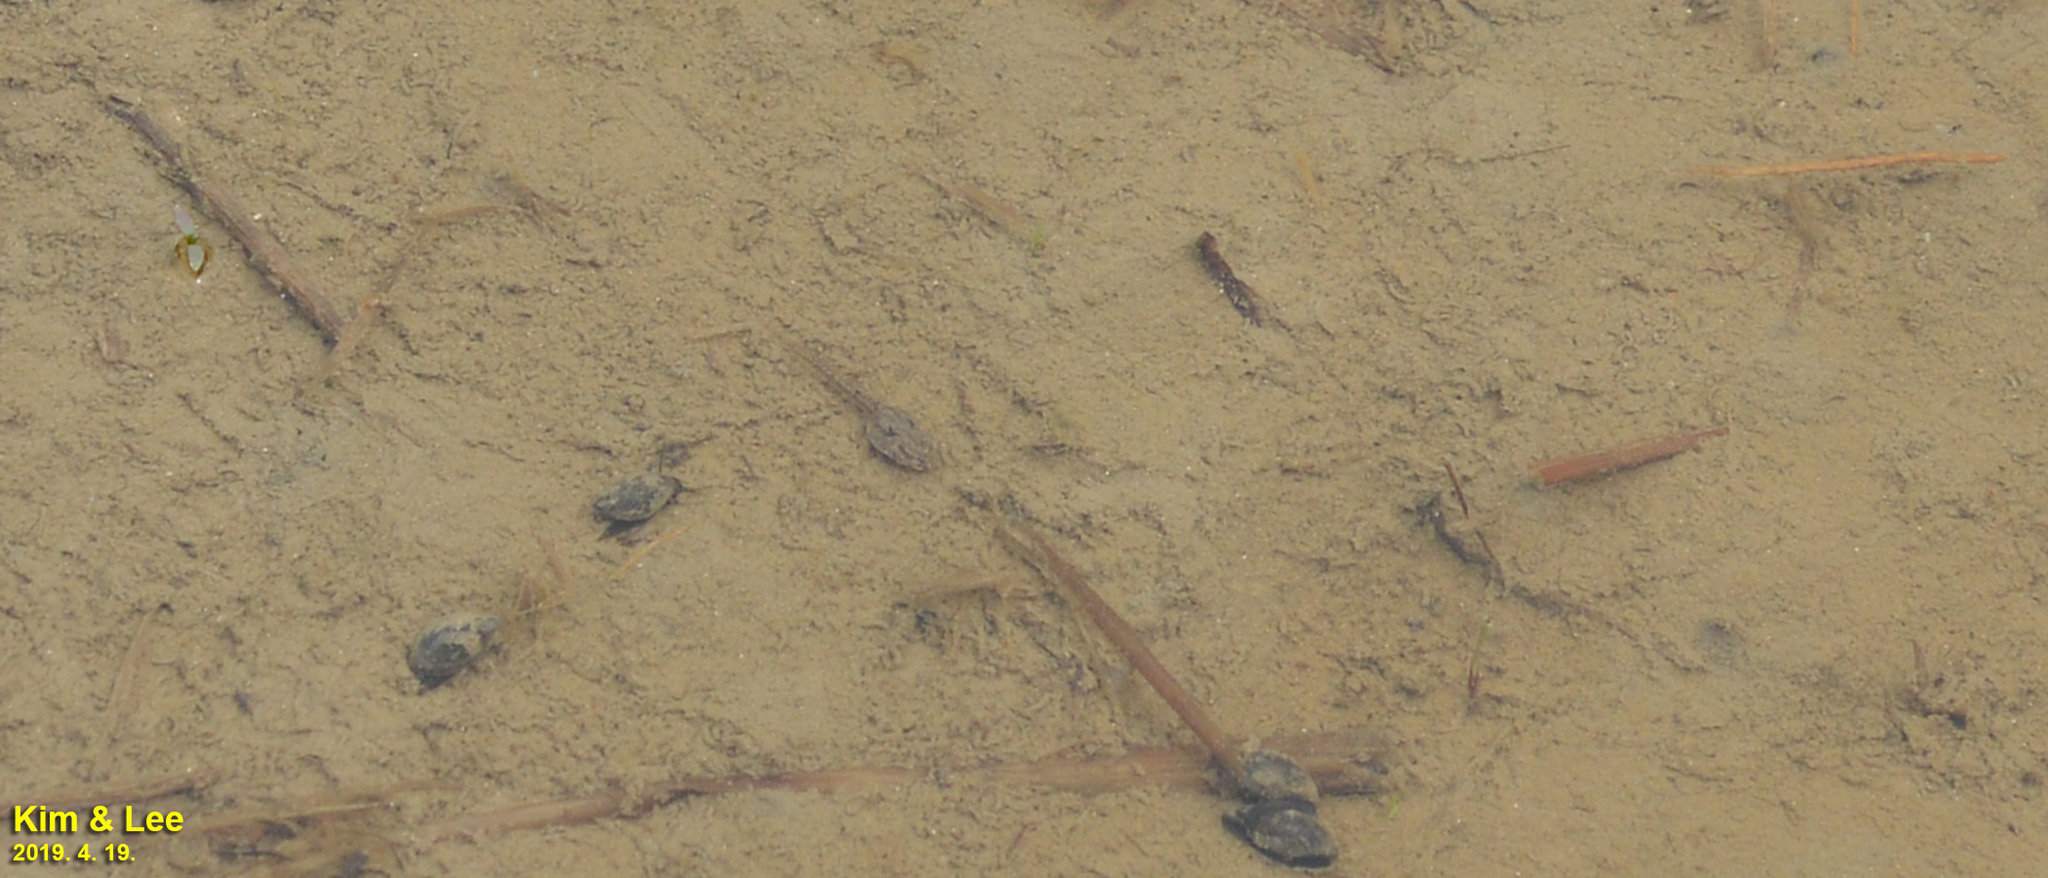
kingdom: Animalia
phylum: Chordata
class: Amphibia
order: Anura
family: Ranidae
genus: Rana
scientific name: Rana coreana
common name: Korean brown frog
